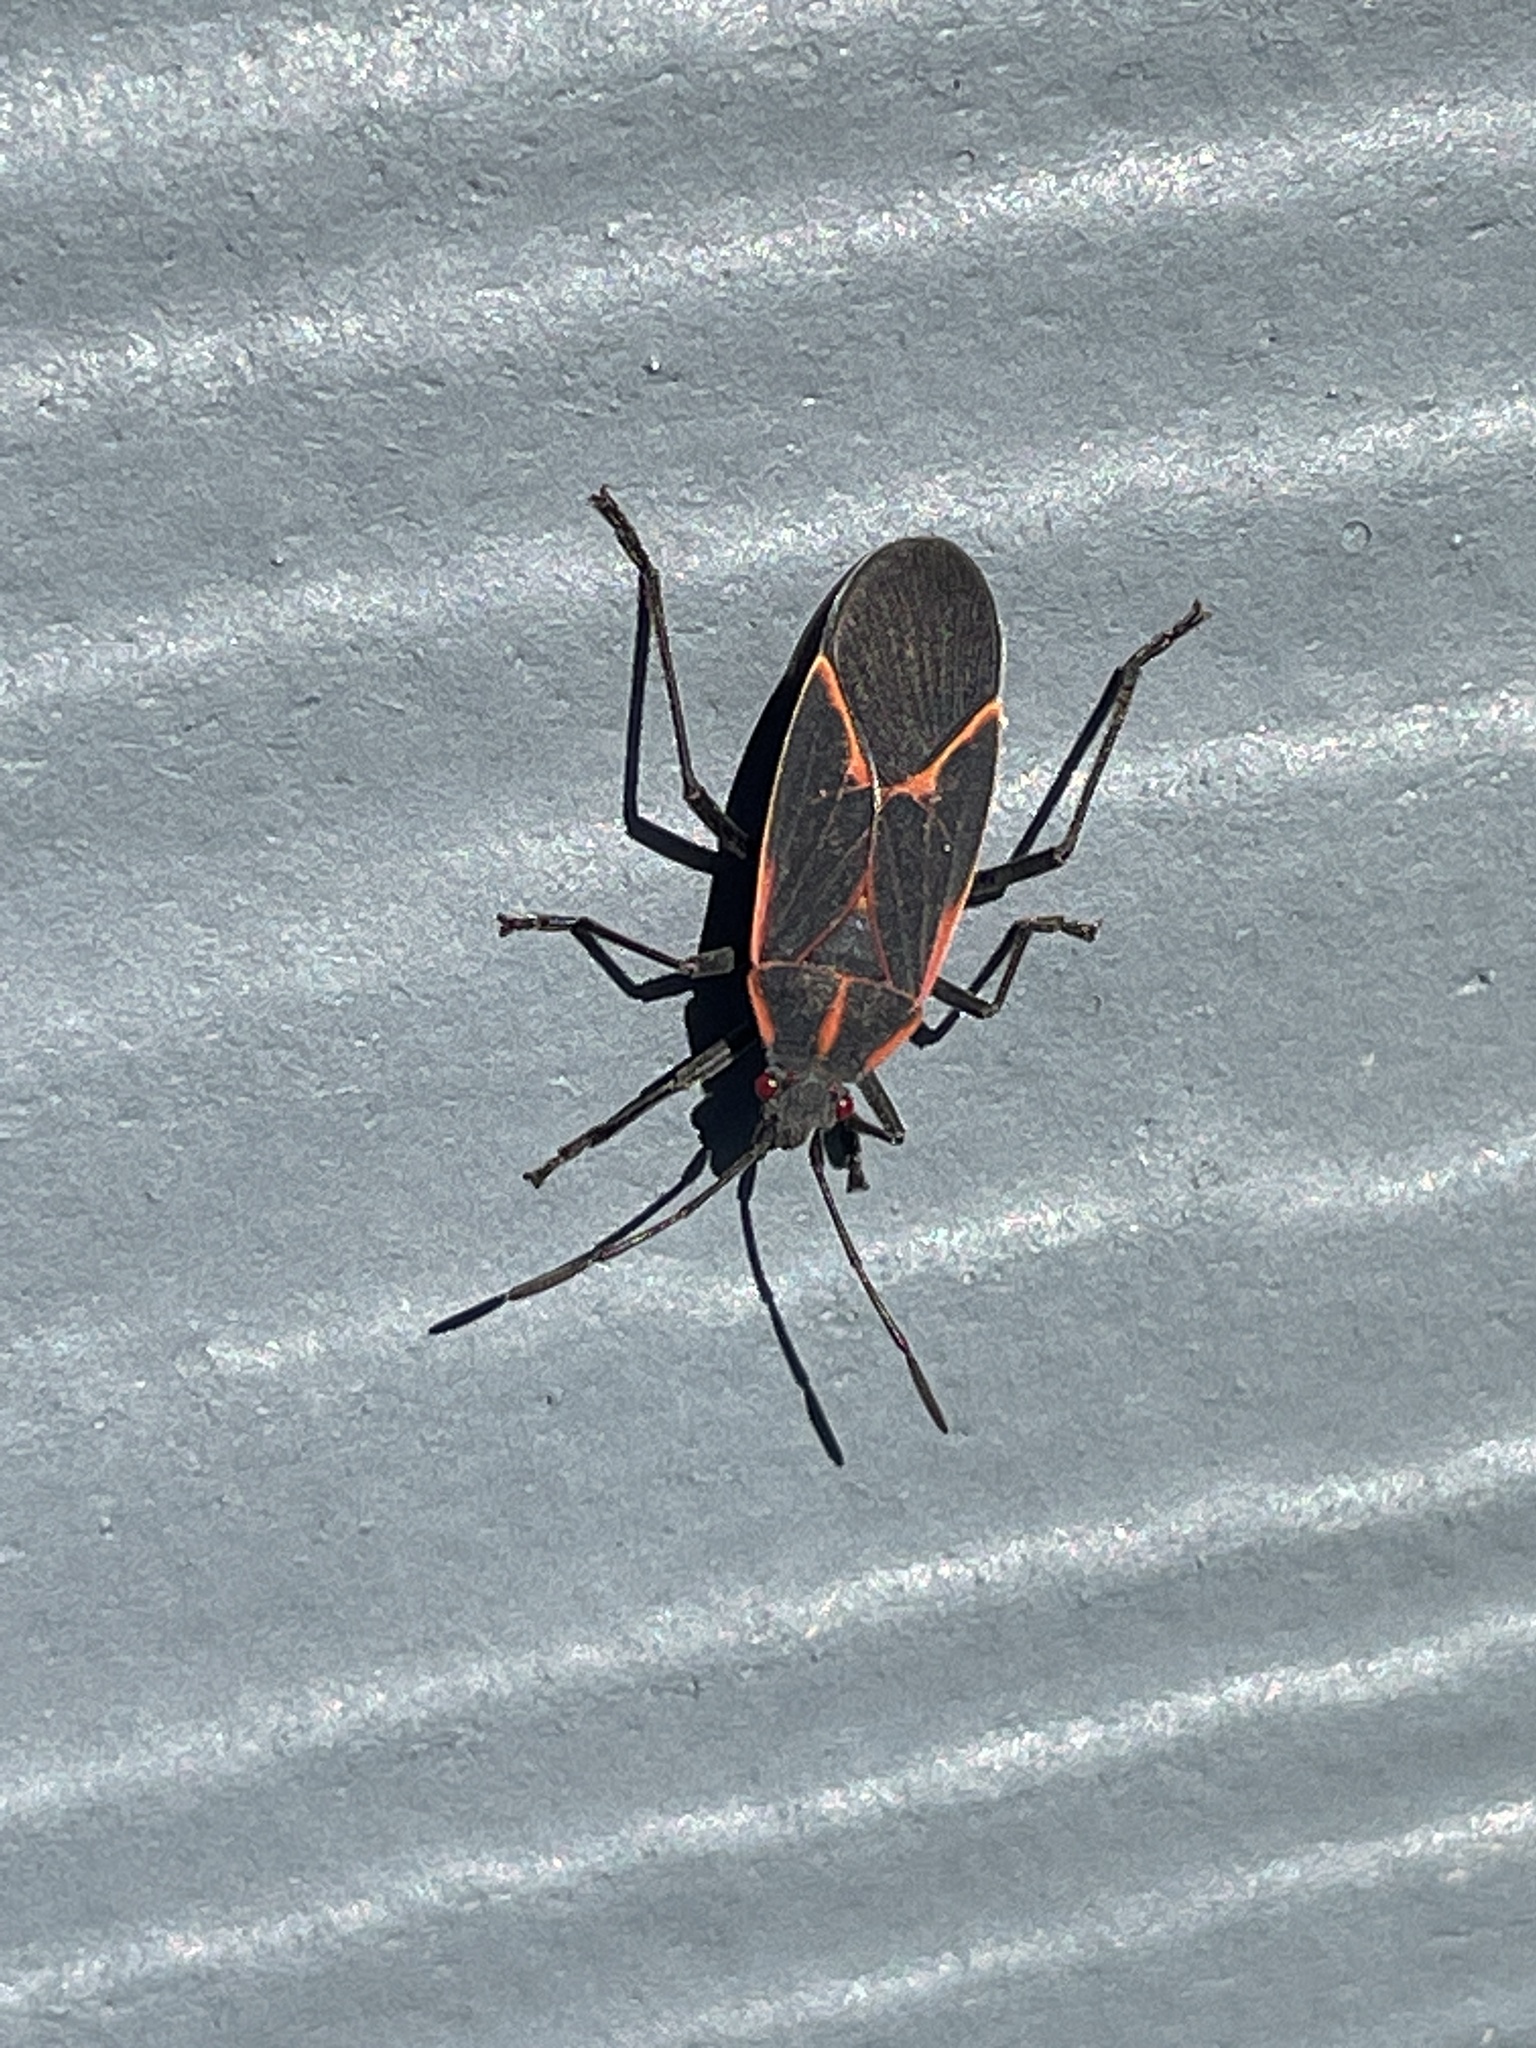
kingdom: Animalia
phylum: Arthropoda
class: Insecta
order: Hemiptera
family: Rhopalidae
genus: Boisea
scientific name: Boisea trivittata
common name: Boxelder bug
